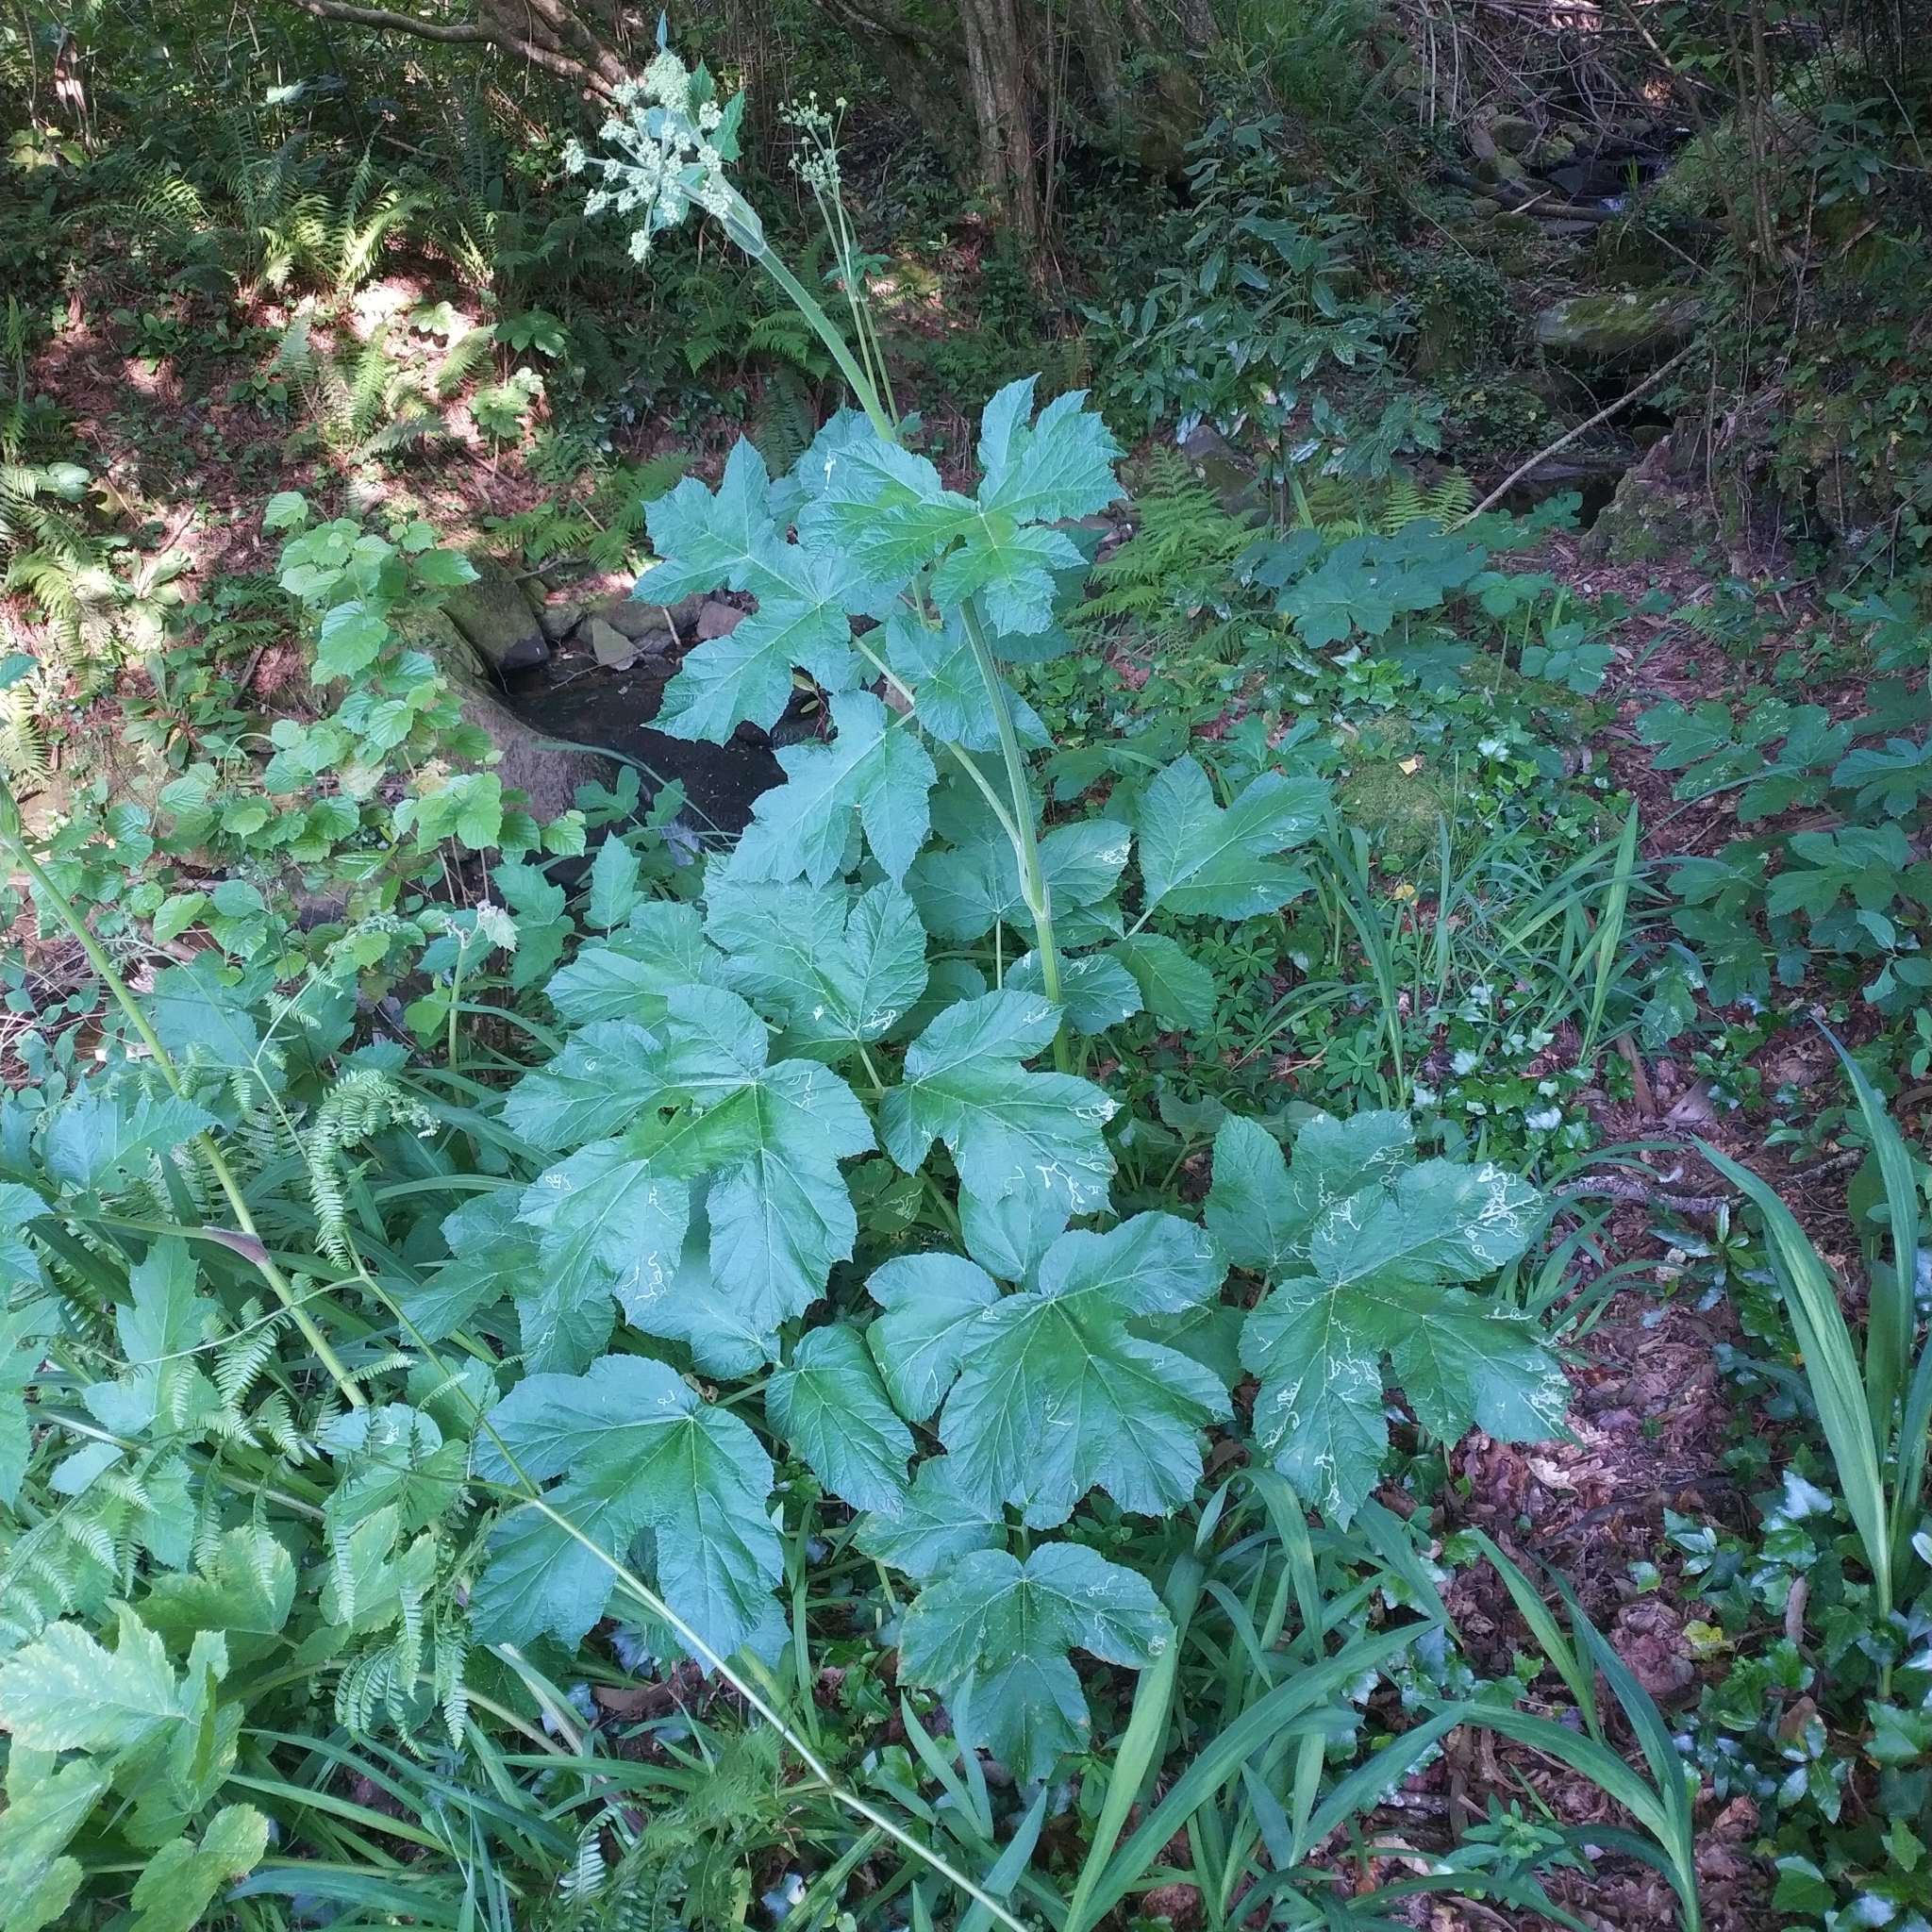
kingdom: Plantae
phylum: Tracheophyta
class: Magnoliopsida
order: Apiales
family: Apiaceae
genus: Heracleum
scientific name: Heracleum sphondylium
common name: Hogweed
